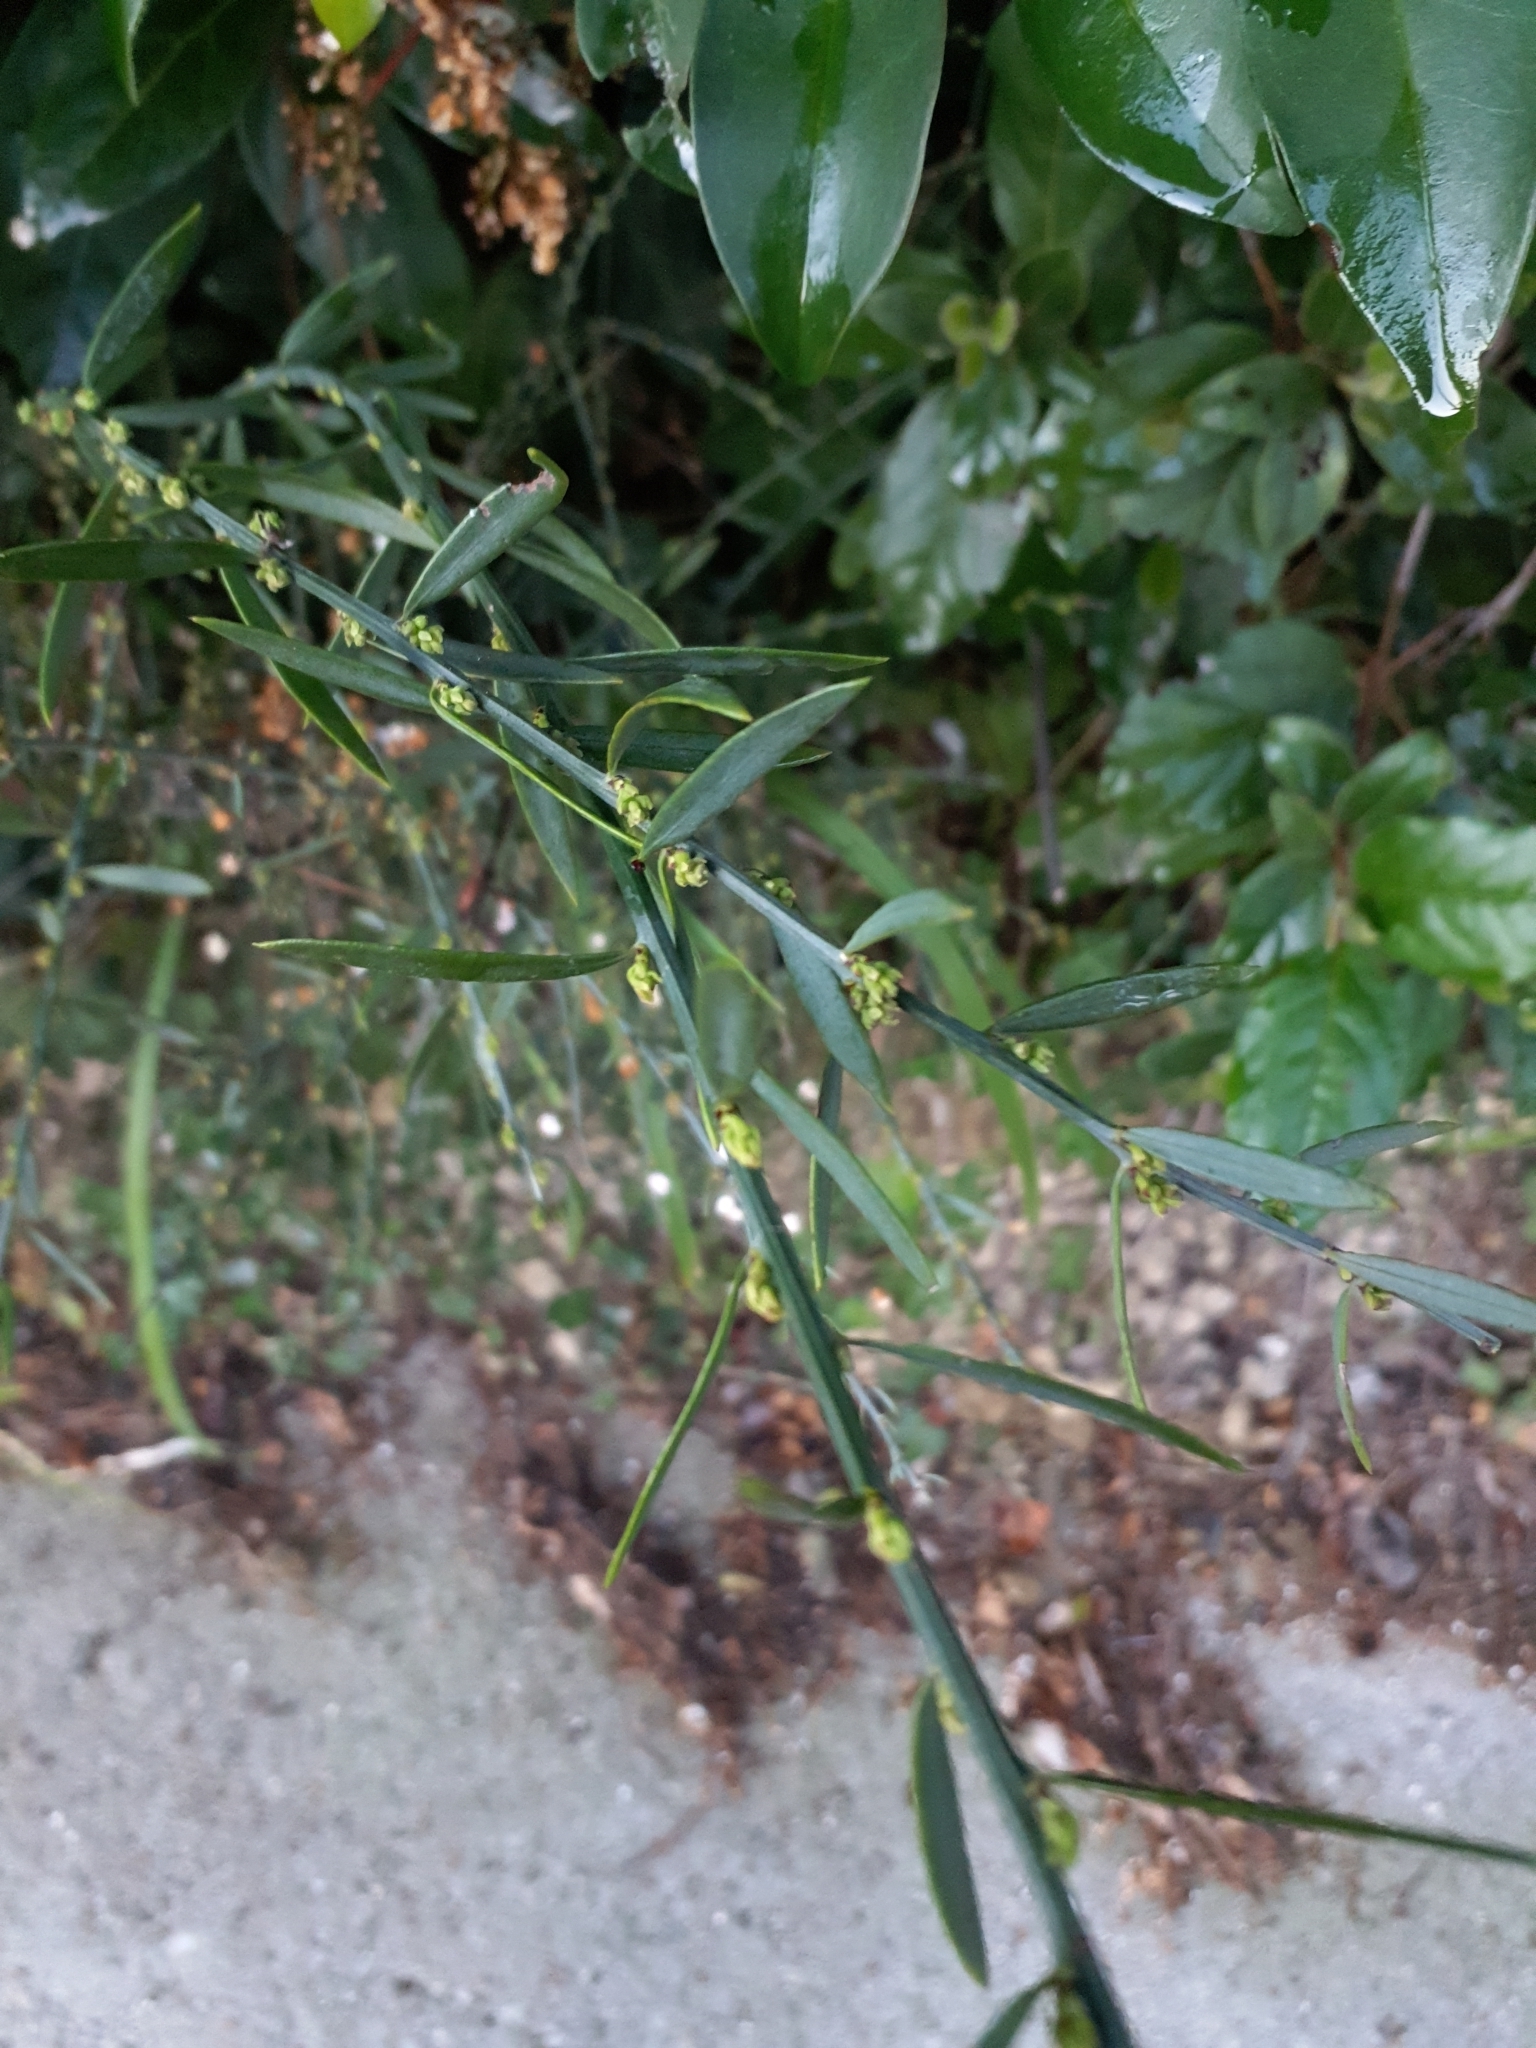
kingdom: Plantae
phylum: Tracheophyta
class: Magnoliopsida
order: Santalales
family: Santalaceae
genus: Osyris
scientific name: Osyris alba
